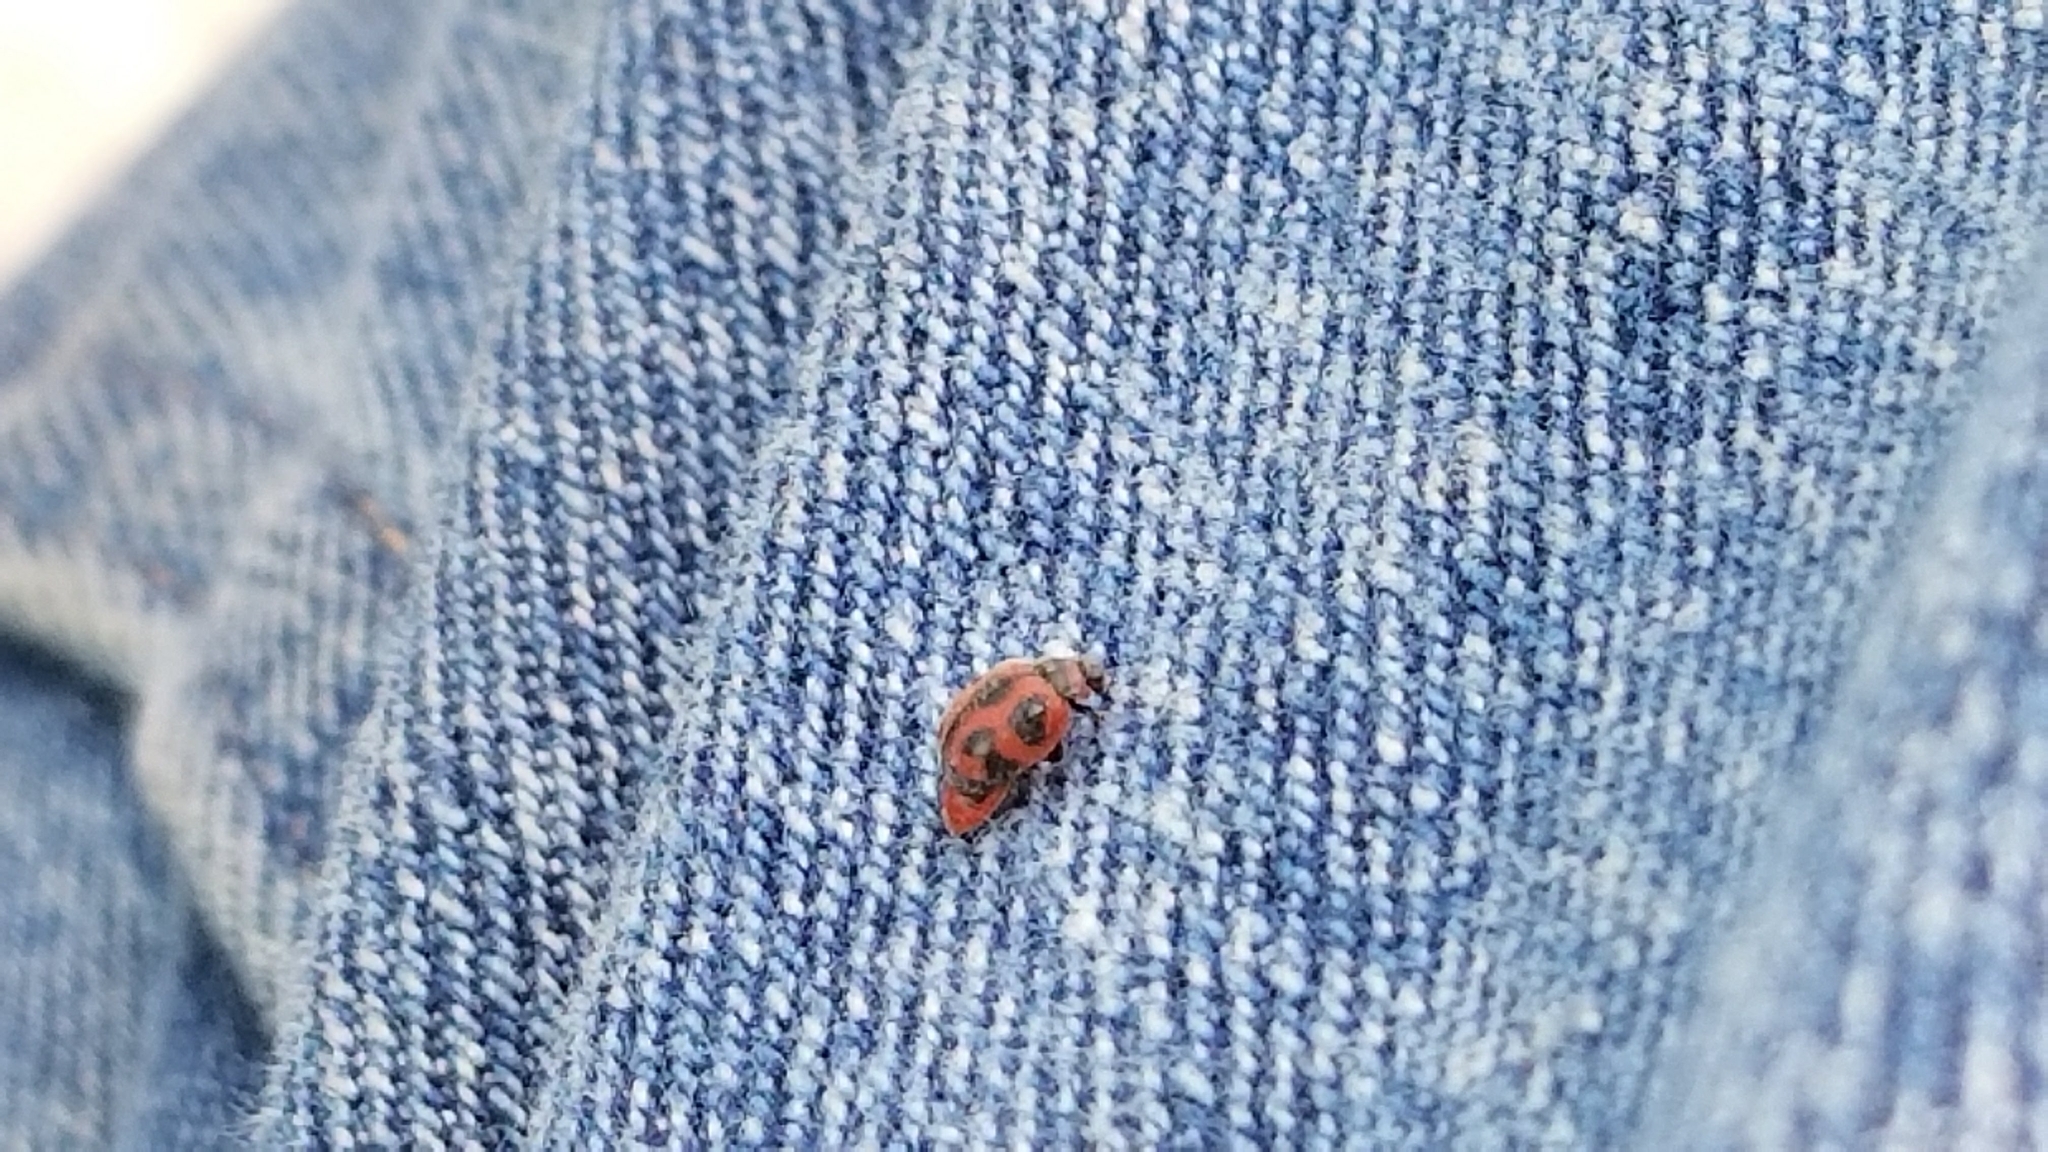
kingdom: Animalia
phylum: Arthropoda
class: Insecta
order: Coleoptera
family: Coccinellidae
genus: Novius
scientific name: Novius cardinalis
